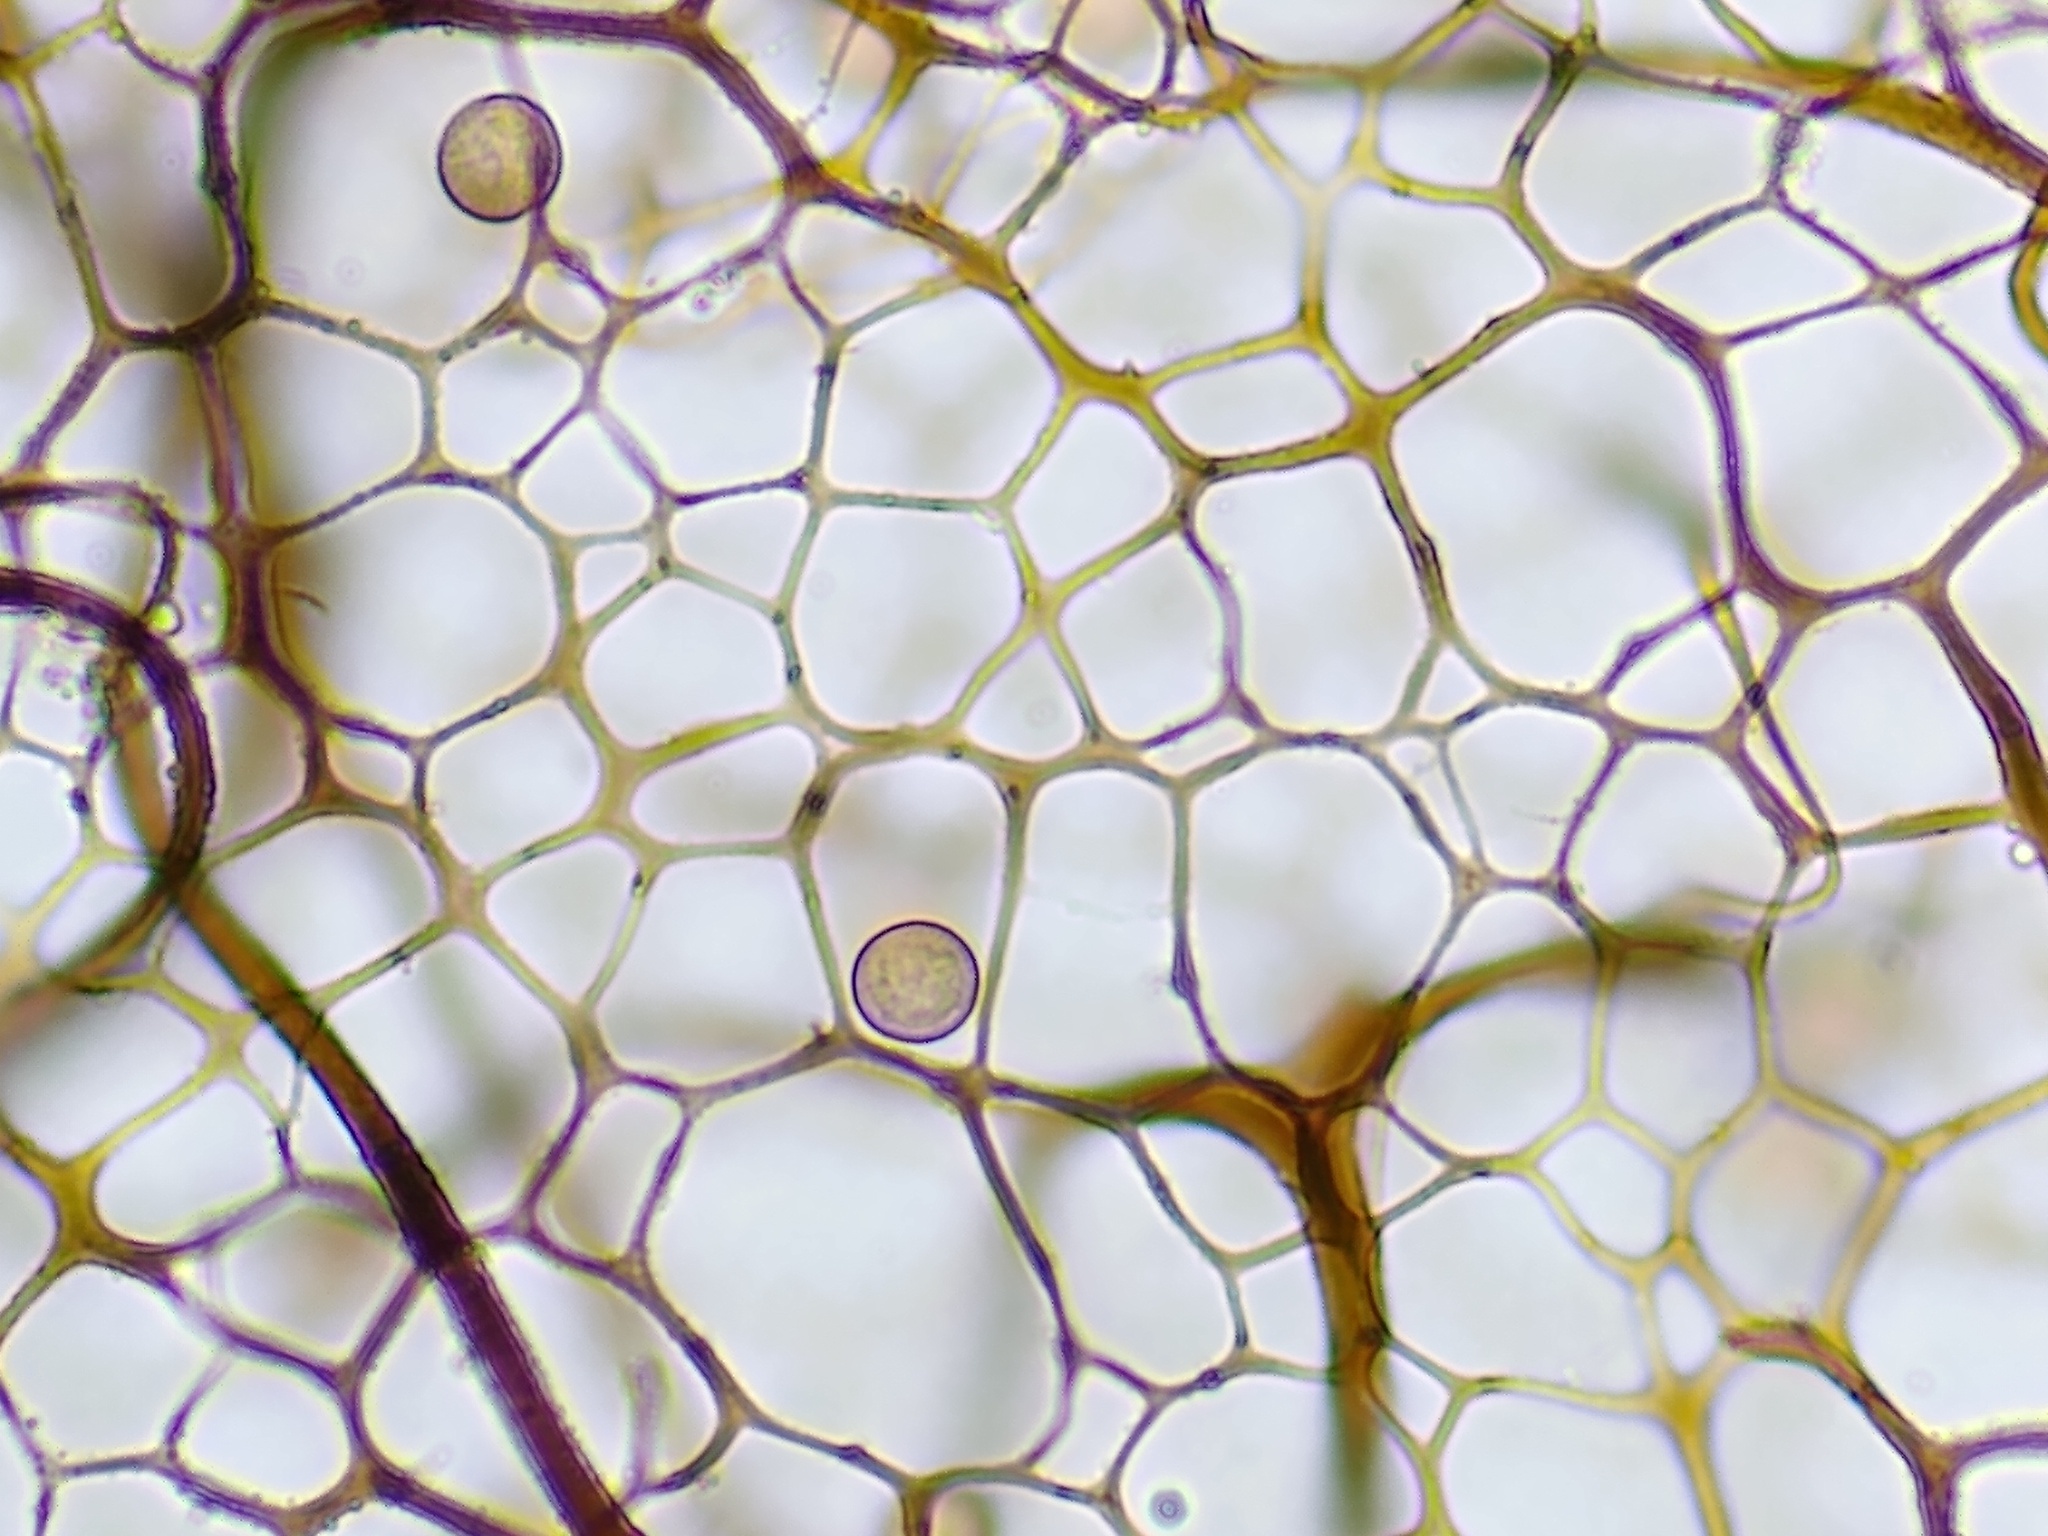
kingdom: Protozoa
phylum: Mycetozoa
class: Myxomycetes
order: Stemonitidales
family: Stemonitidaceae
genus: Stemonitis
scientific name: Stemonitis splendens
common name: Chocolate tube slime
